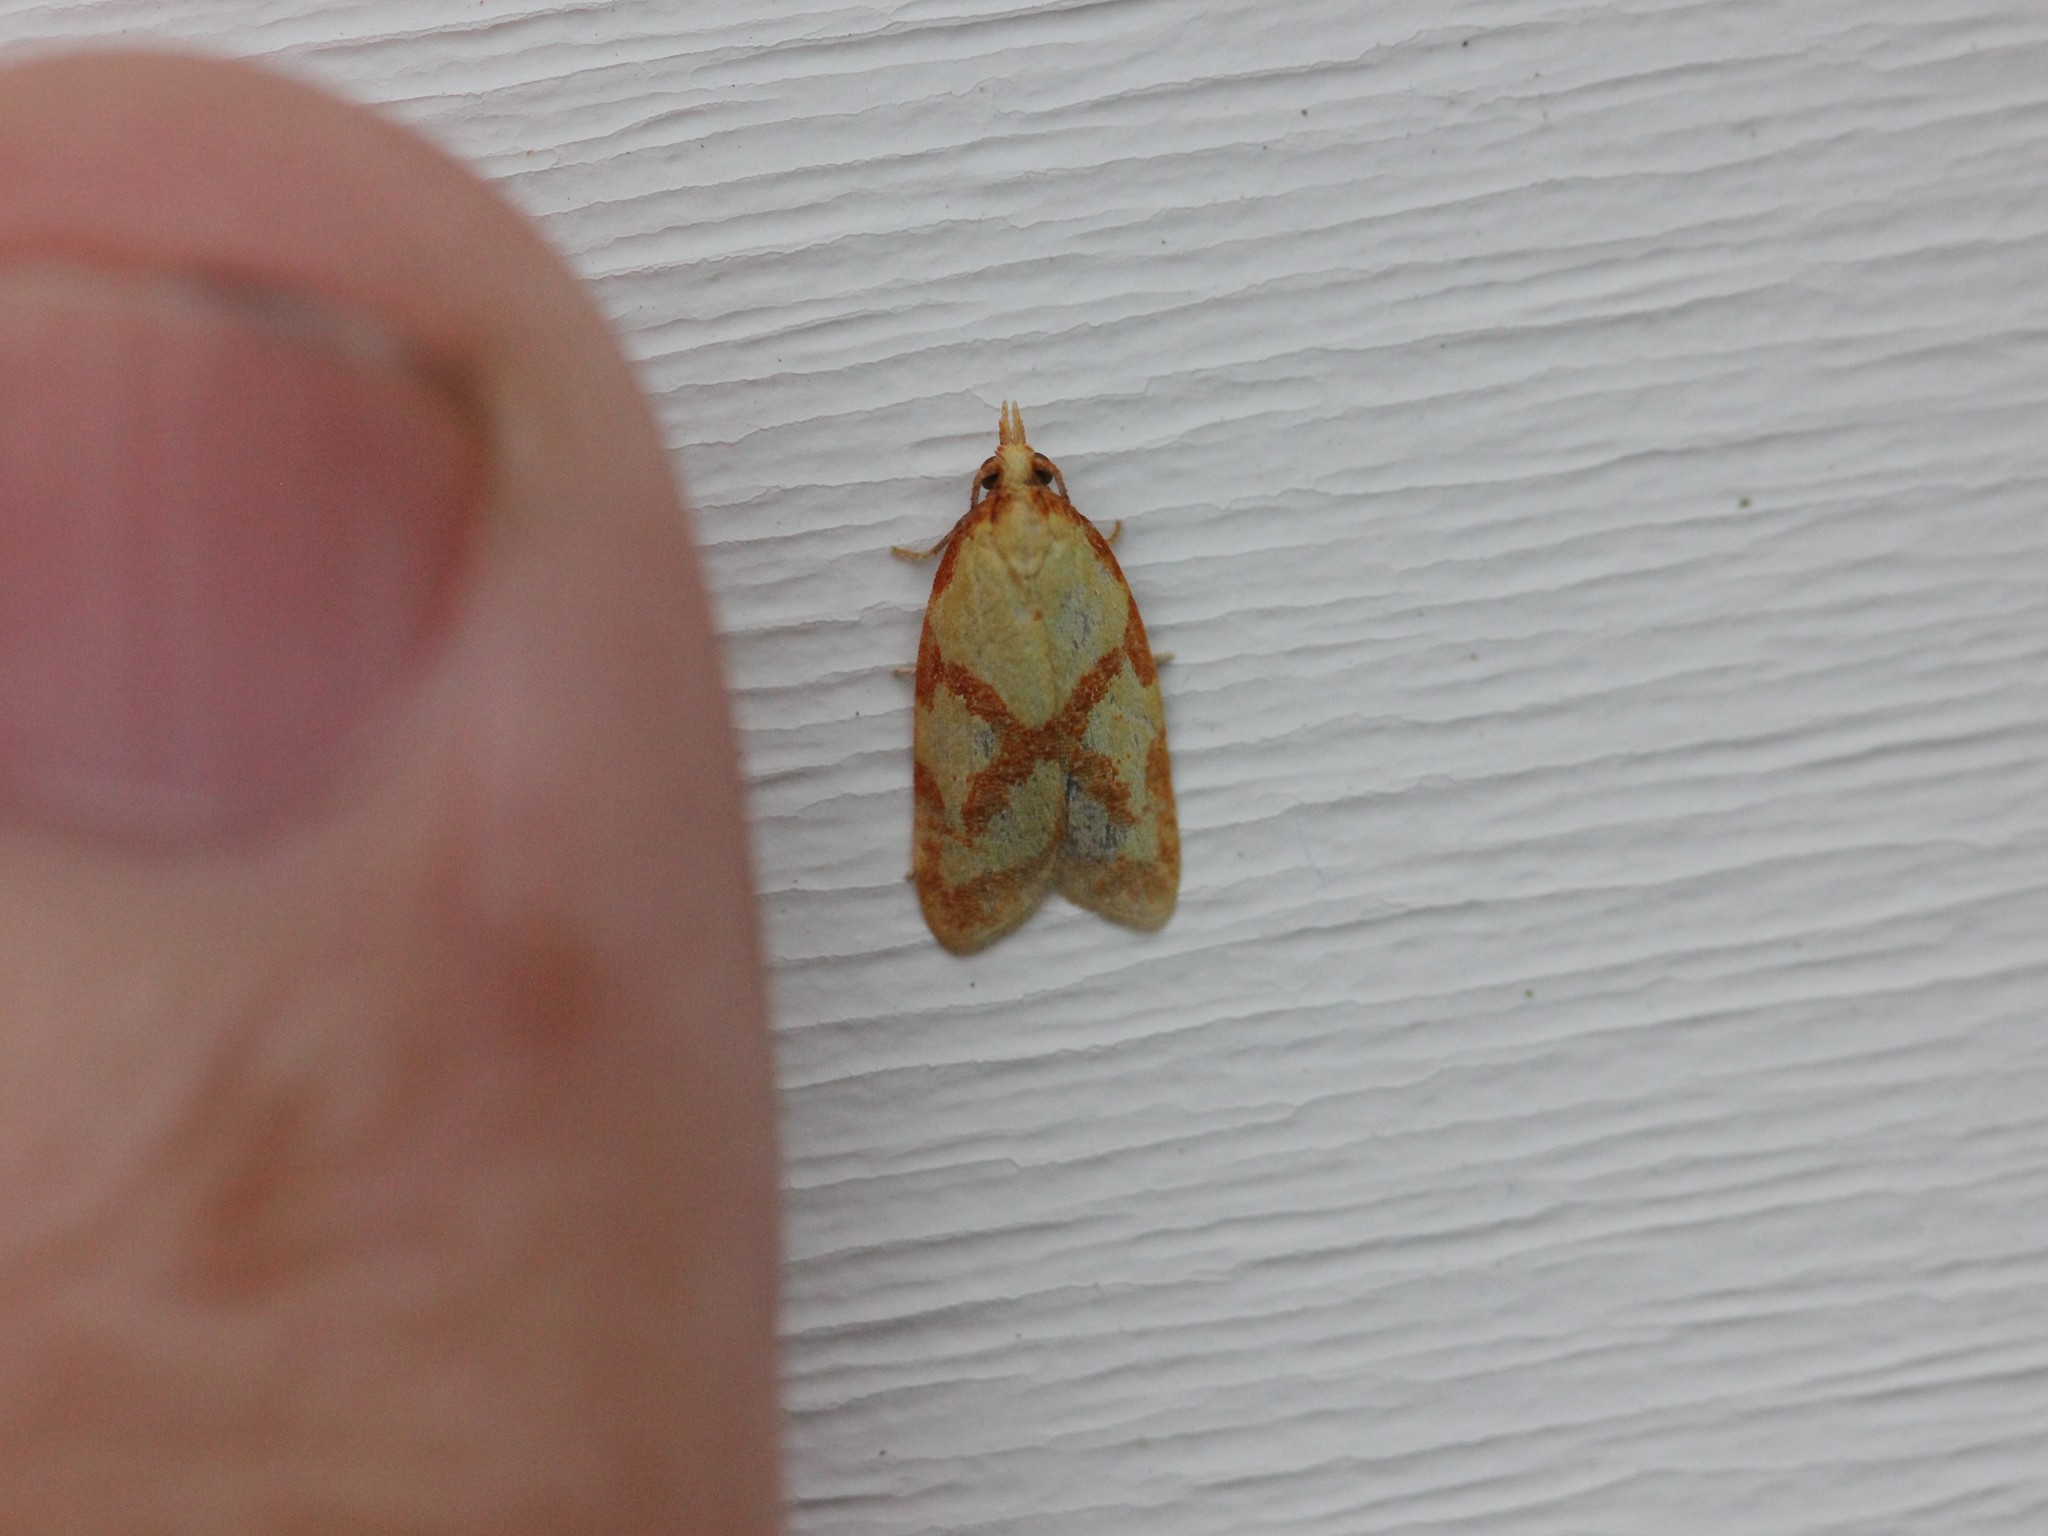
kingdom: Animalia
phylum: Arthropoda
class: Insecta
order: Lepidoptera
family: Tortricidae
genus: Sparganothis
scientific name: Sparganothis sulfureana
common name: Sparganothis fruitworm moth
